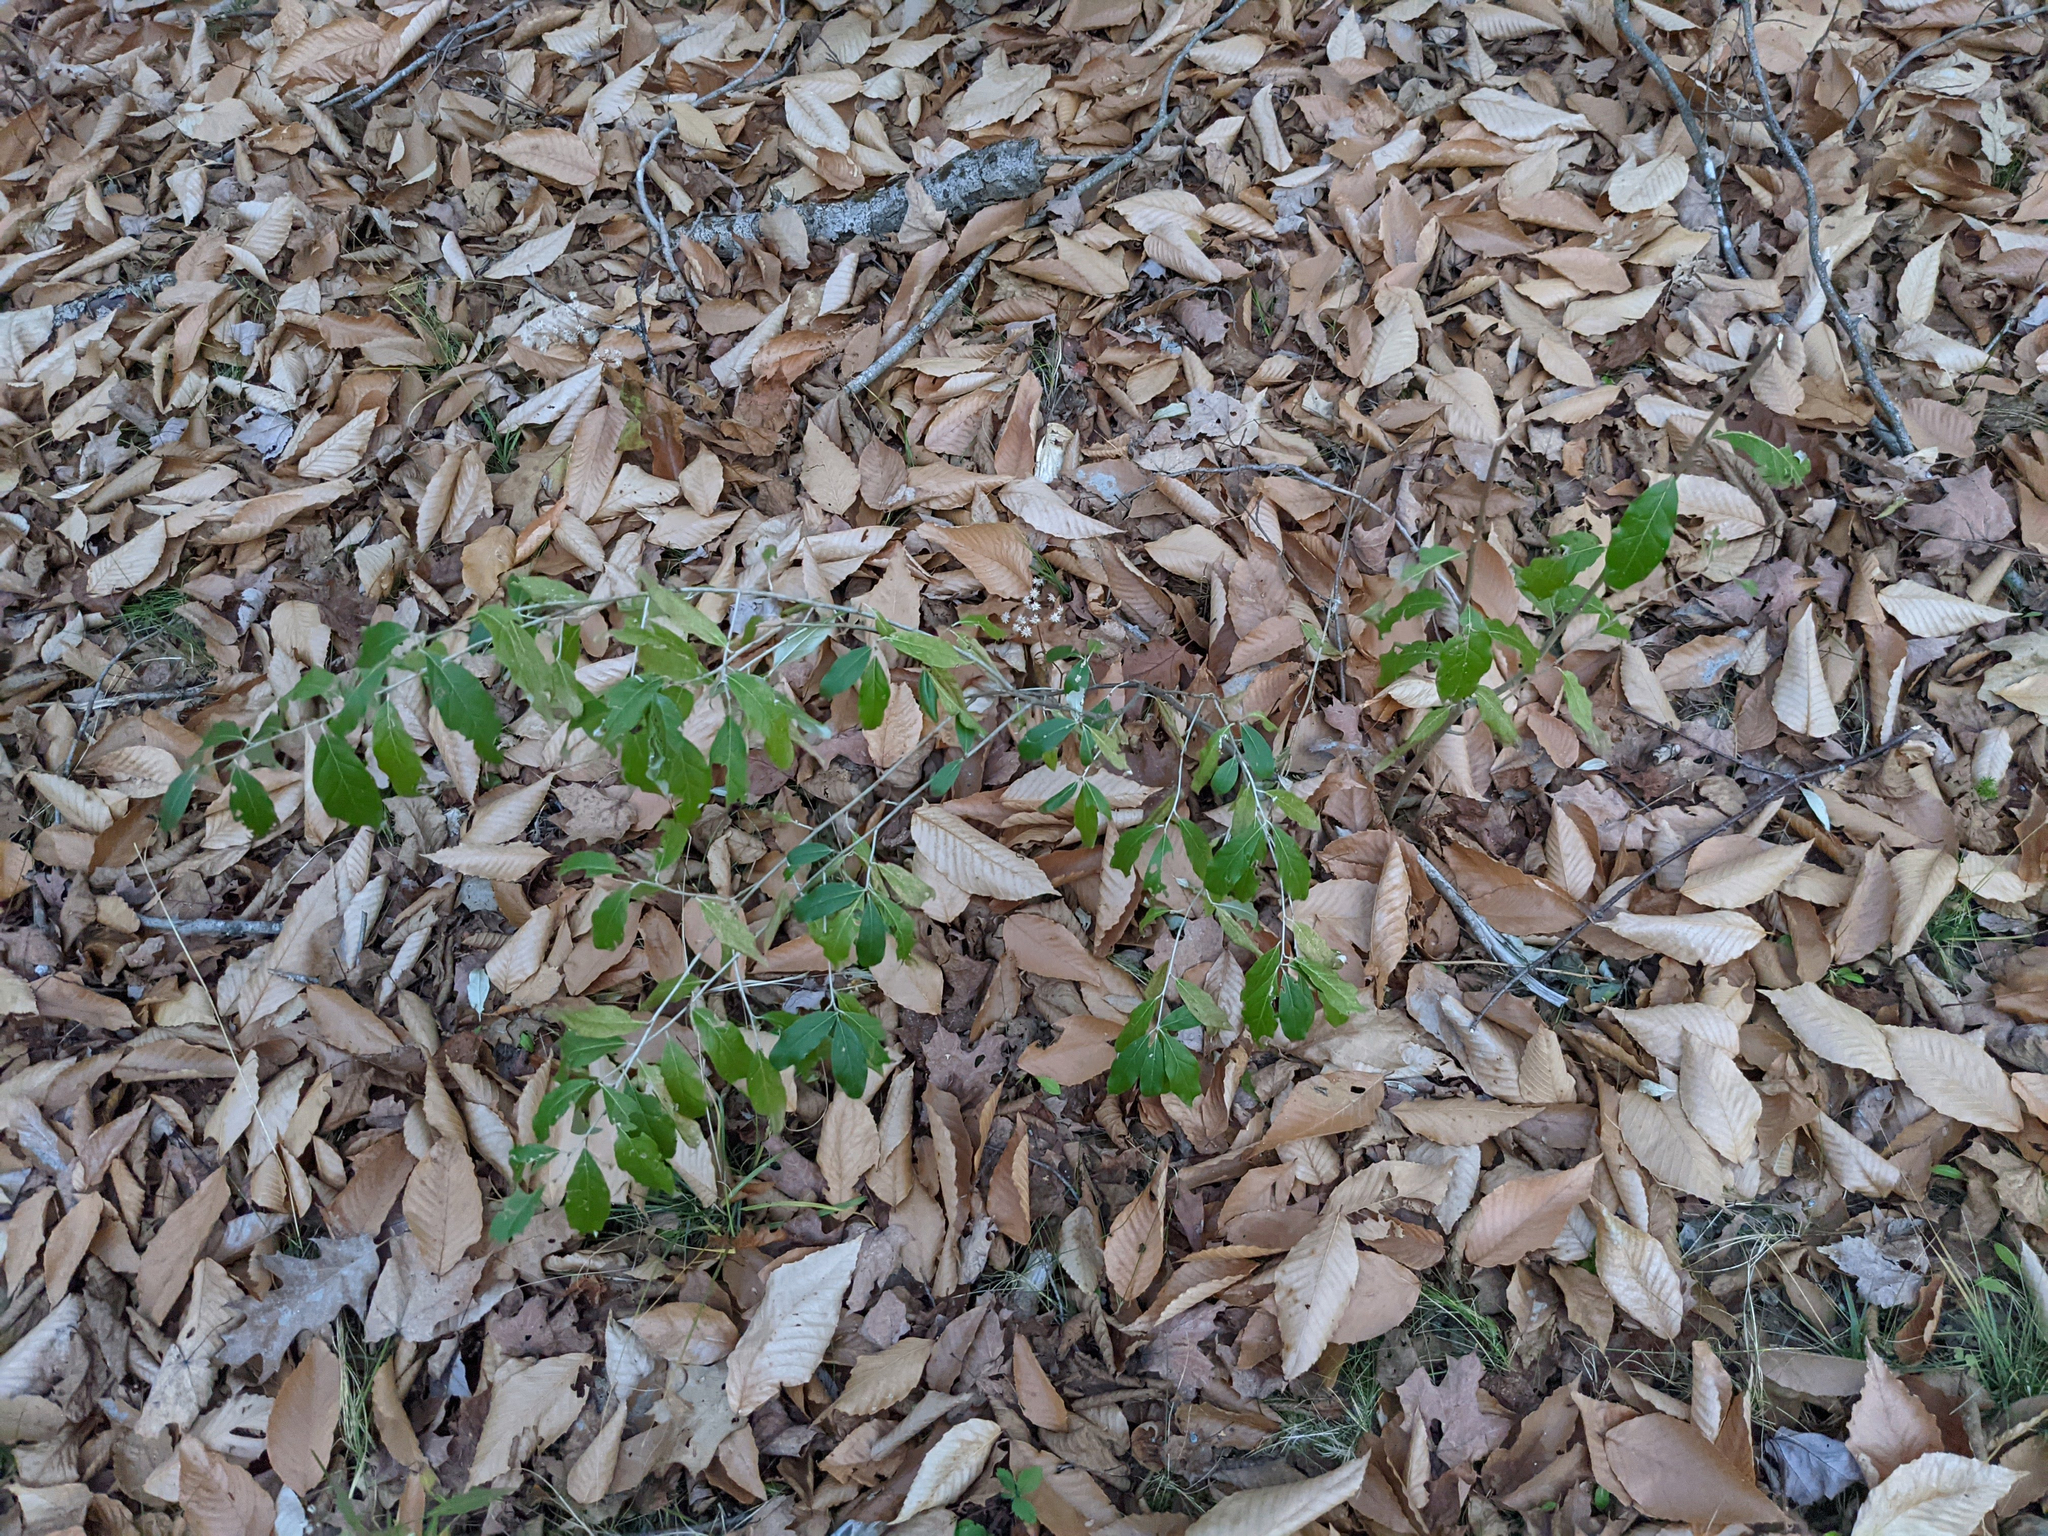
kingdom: Plantae
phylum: Tracheophyta
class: Magnoliopsida
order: Rosales
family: Elaeagnaceae
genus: Elaeagnus
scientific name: Elaeagnus umbellata
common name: Autumn olive
